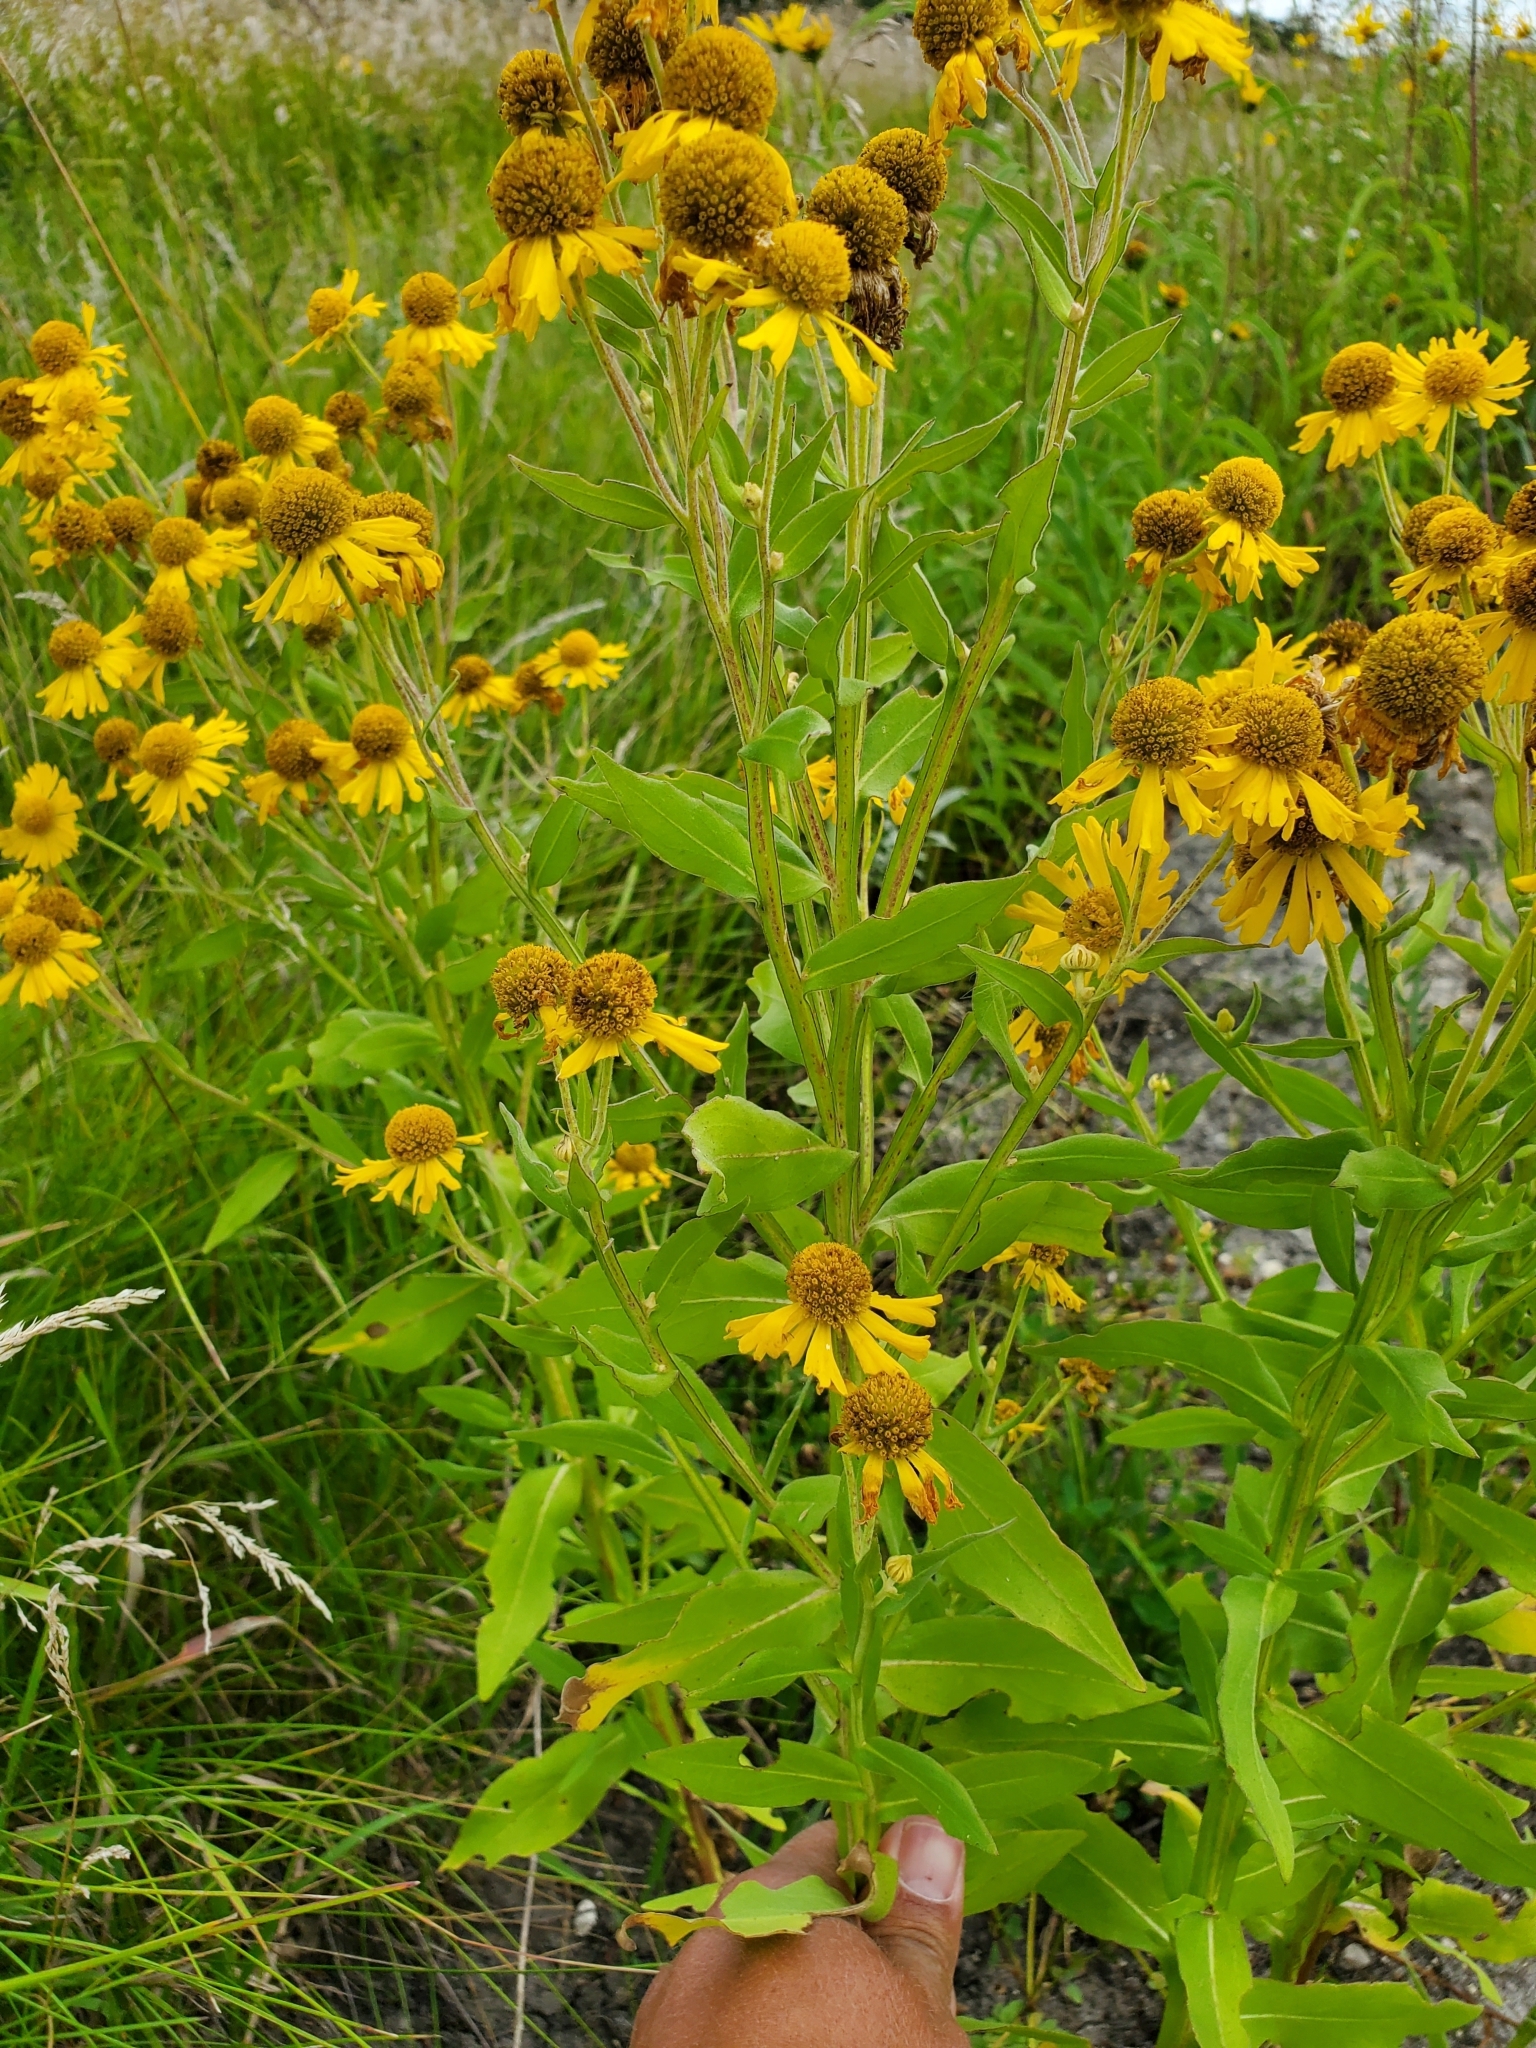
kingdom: Plantae
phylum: Tracheophyta
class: Magnoliopsida
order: Asterales
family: Asteraceae
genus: Helenium
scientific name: Helenium autumnale
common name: Sneezeweed
